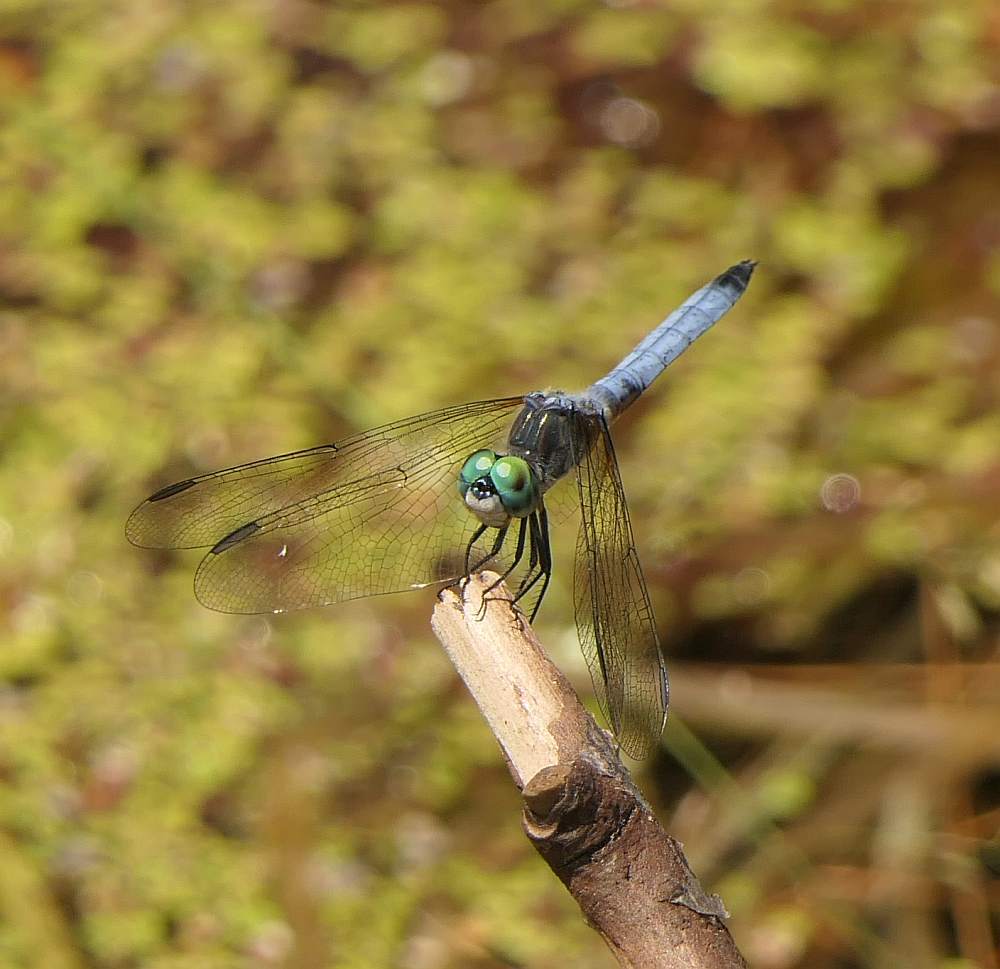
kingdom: Animalia
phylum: Arthropoda
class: Insecta
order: Odonata
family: Libellulidae
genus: Pachydiplax
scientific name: Pachydiplax longipennis
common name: Blue dasher
